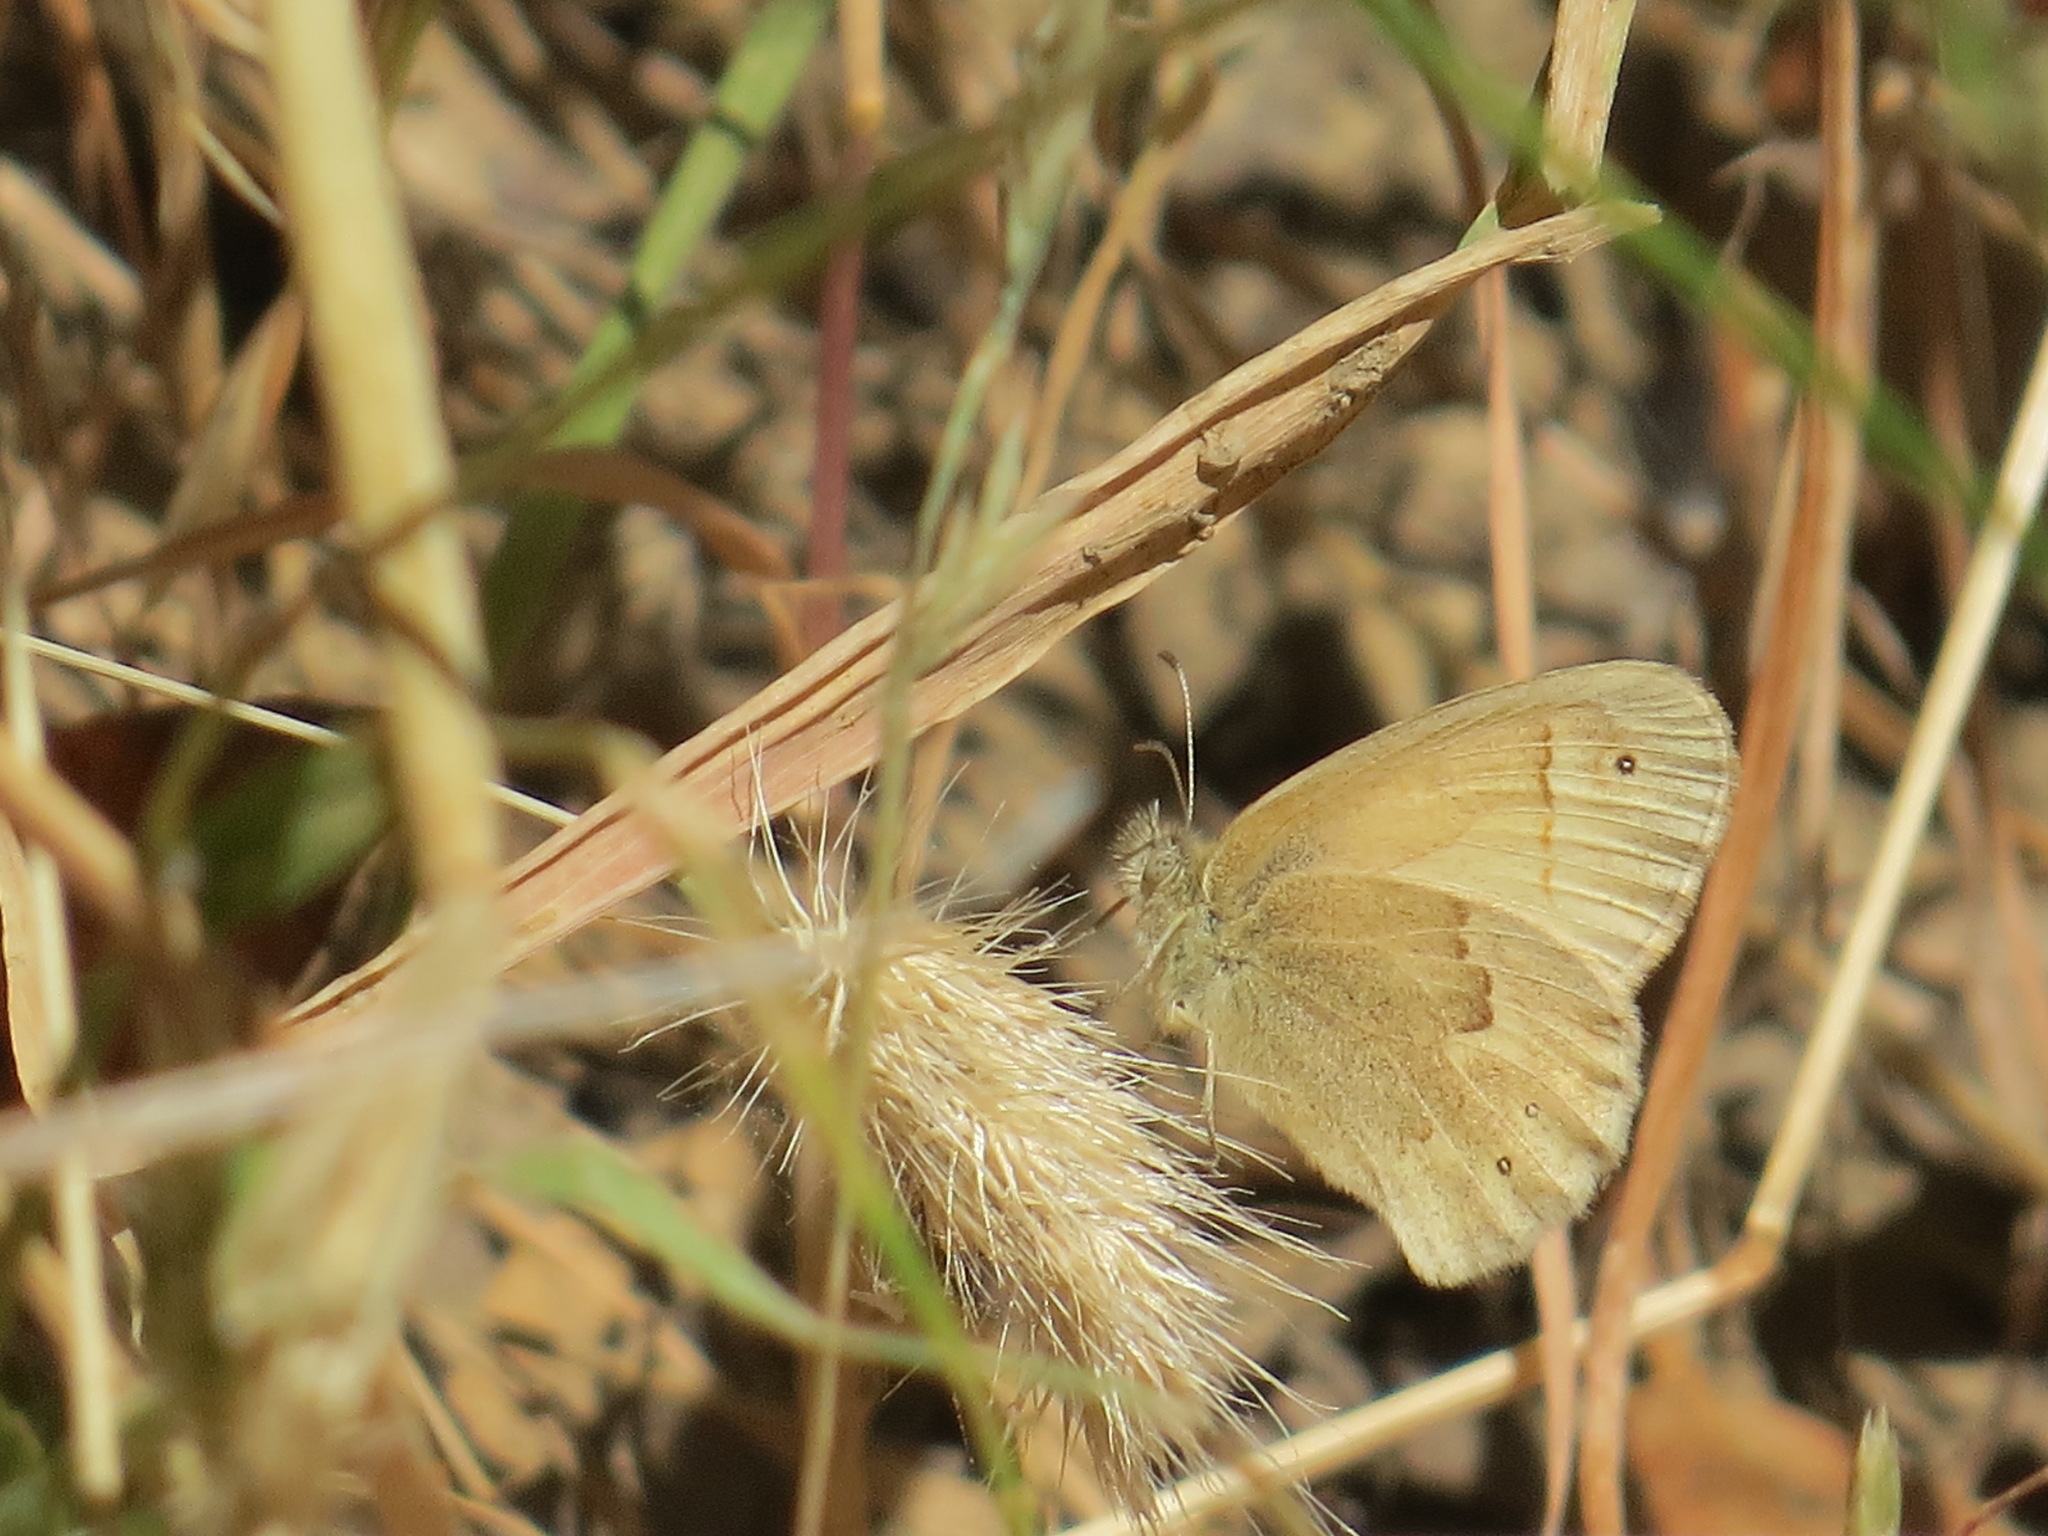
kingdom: Animalia
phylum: Arthropoda
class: Insecta
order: Lepidoptera
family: Nymphalidae
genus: Coenonympha
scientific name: Coenonympha california
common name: Common ringlet
